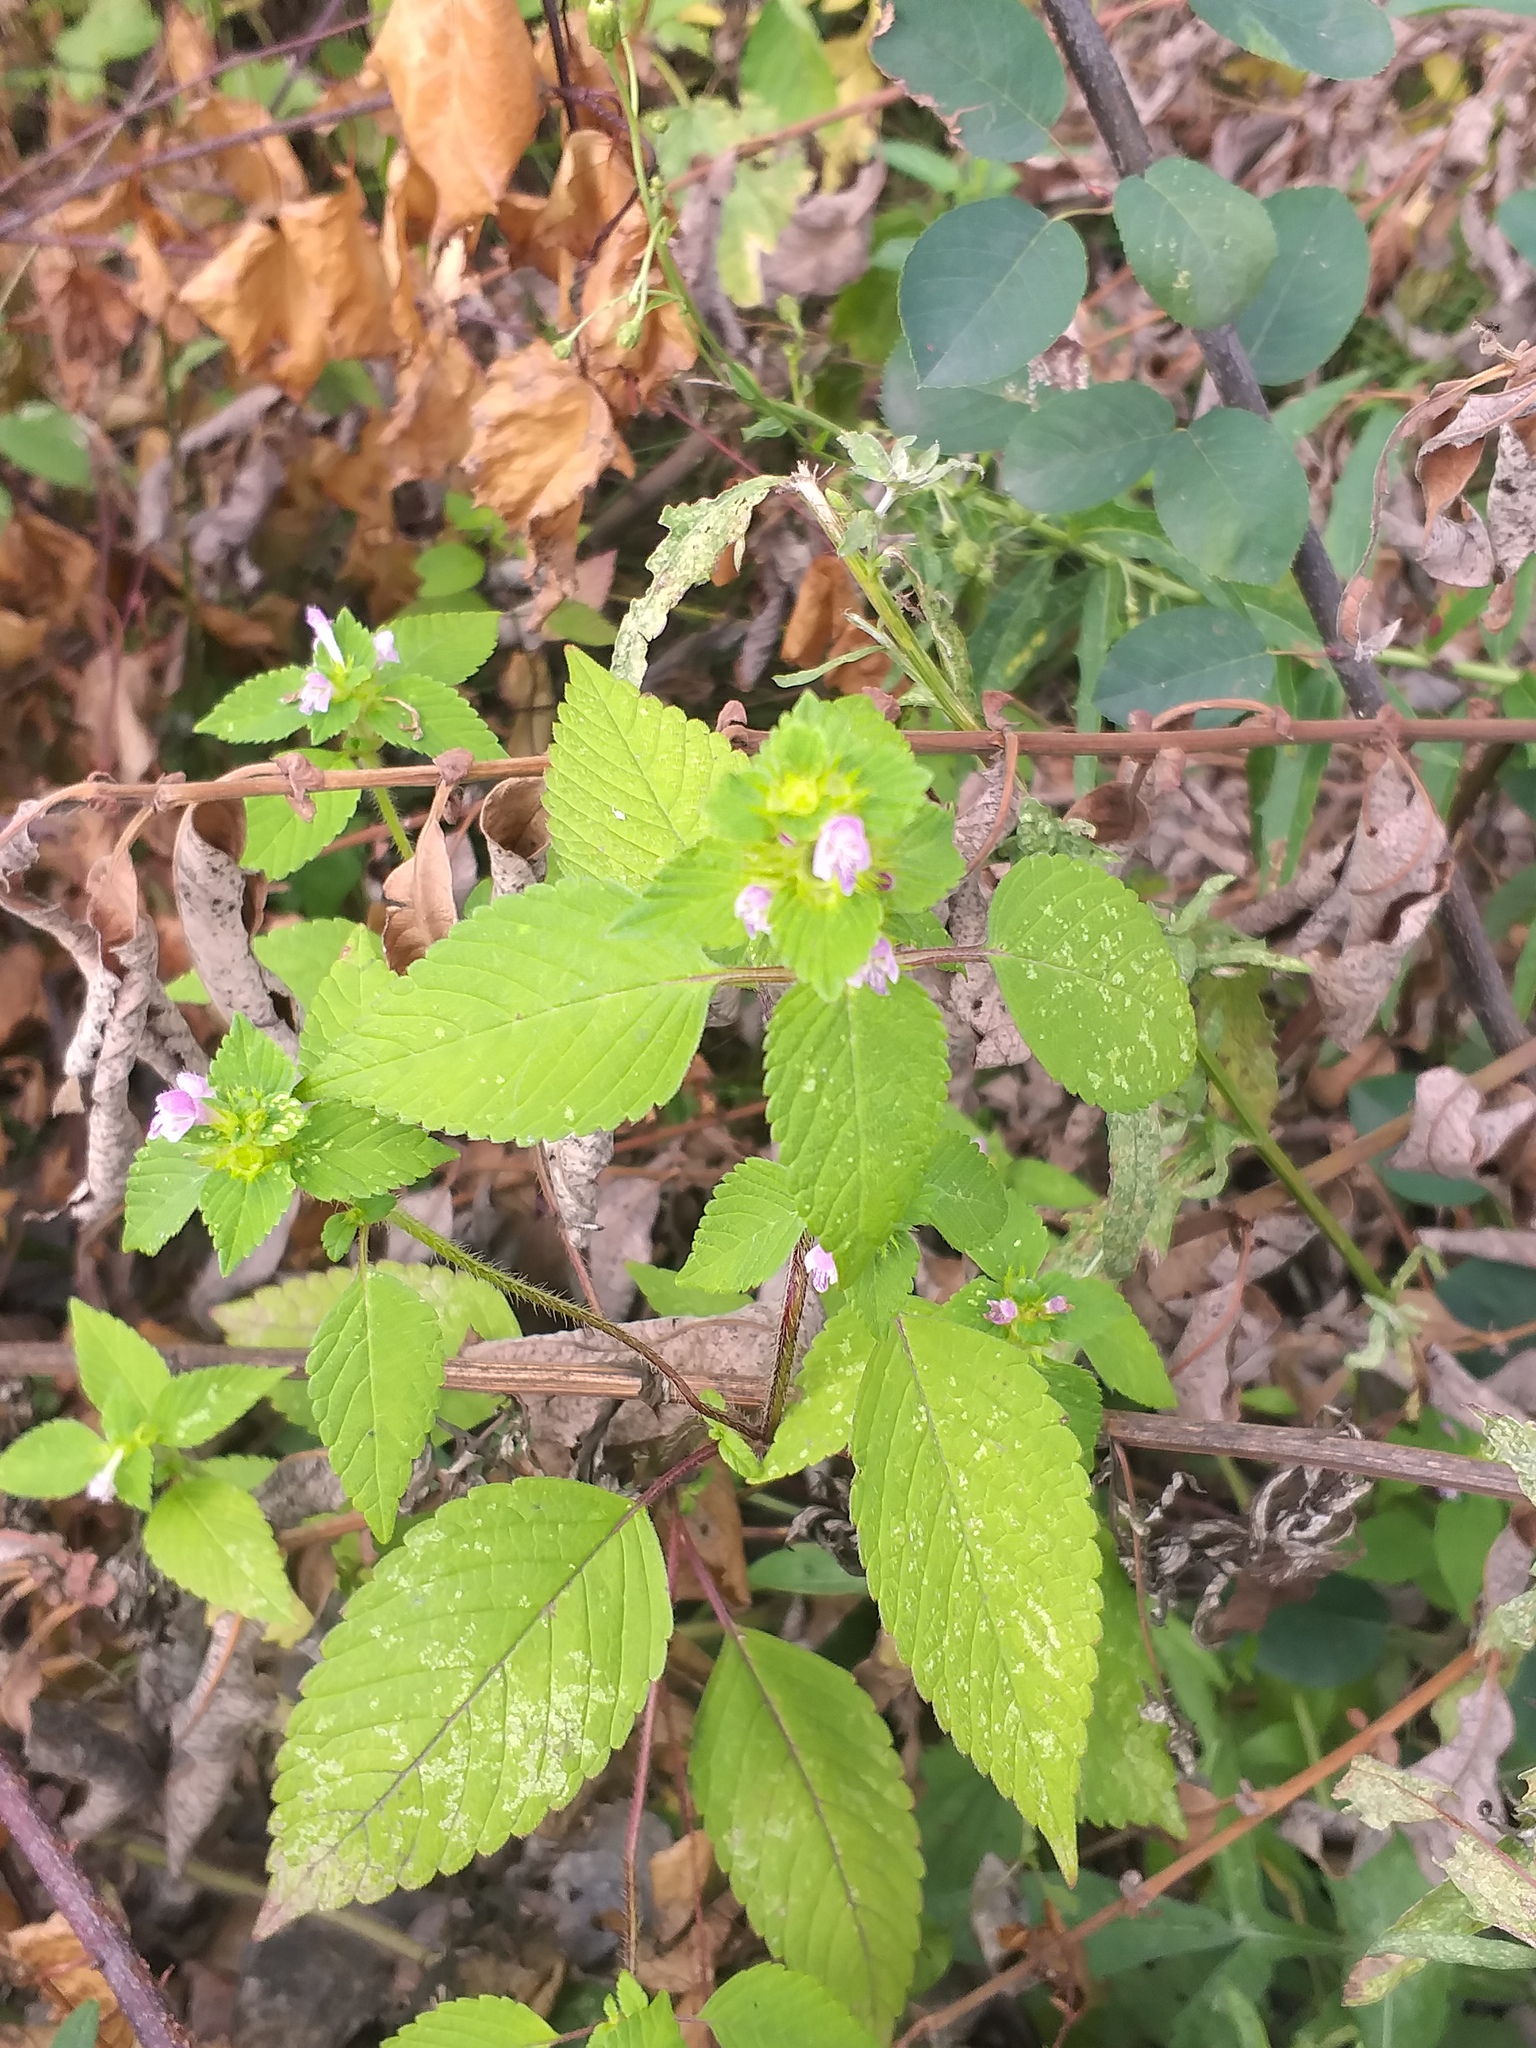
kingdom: Plantae
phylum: Tracheophyta
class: Magnoliopsida
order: Lamiales
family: Lamiaceae
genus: Galeopsis
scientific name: Galeopsis bifida
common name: Bifid hemp-nettle
